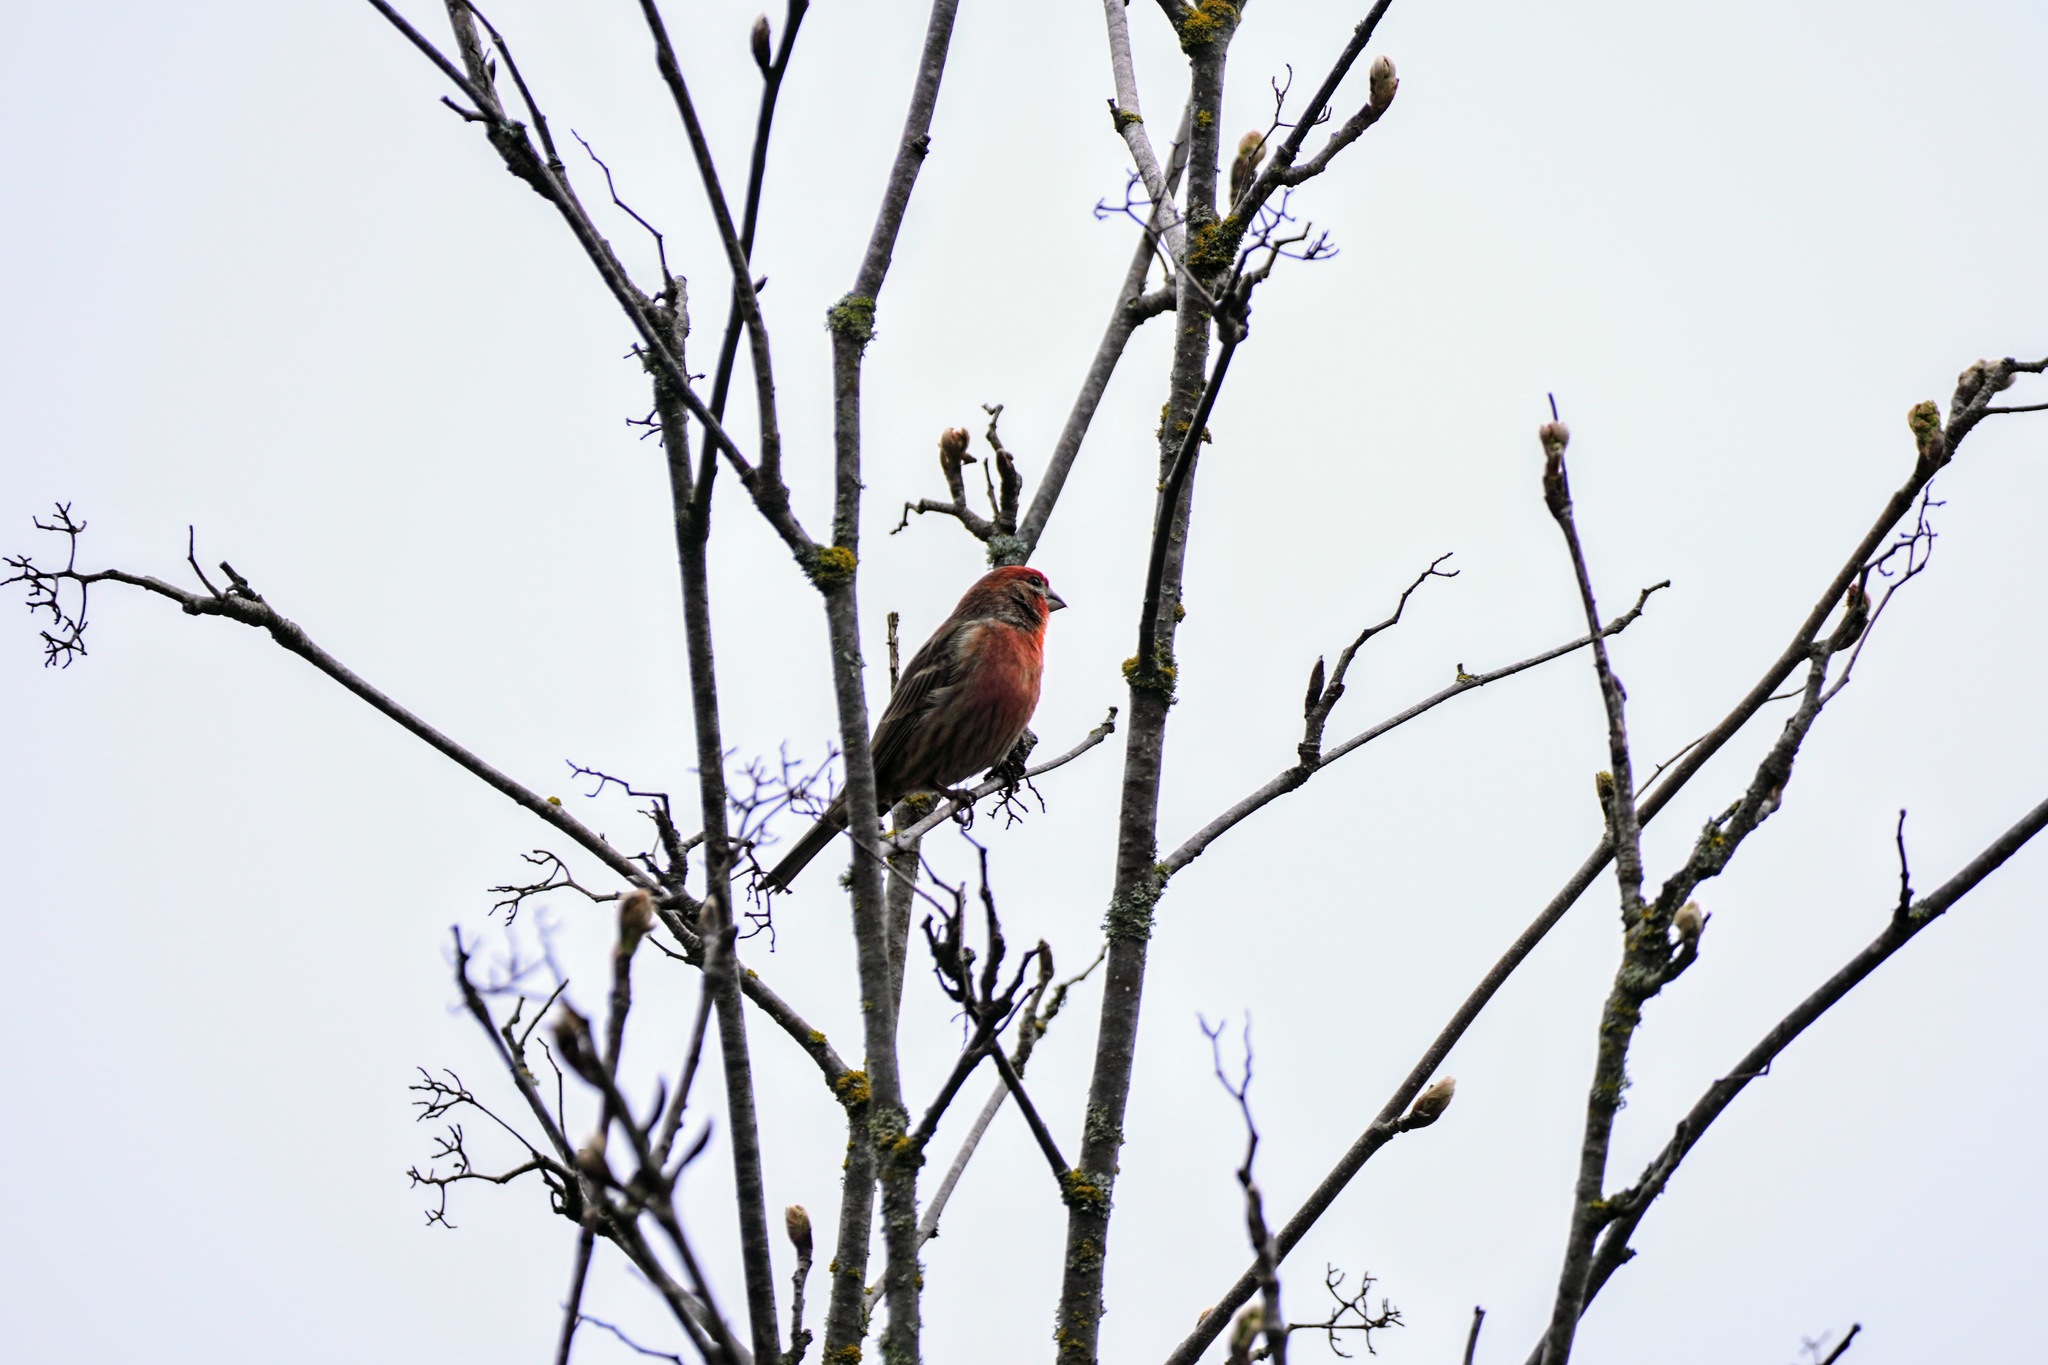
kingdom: Animalia
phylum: Chordata
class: Aves
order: Passeriformes
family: Fringillidae
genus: Haemorhous
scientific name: Haemorhous mexicanus
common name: House finch
